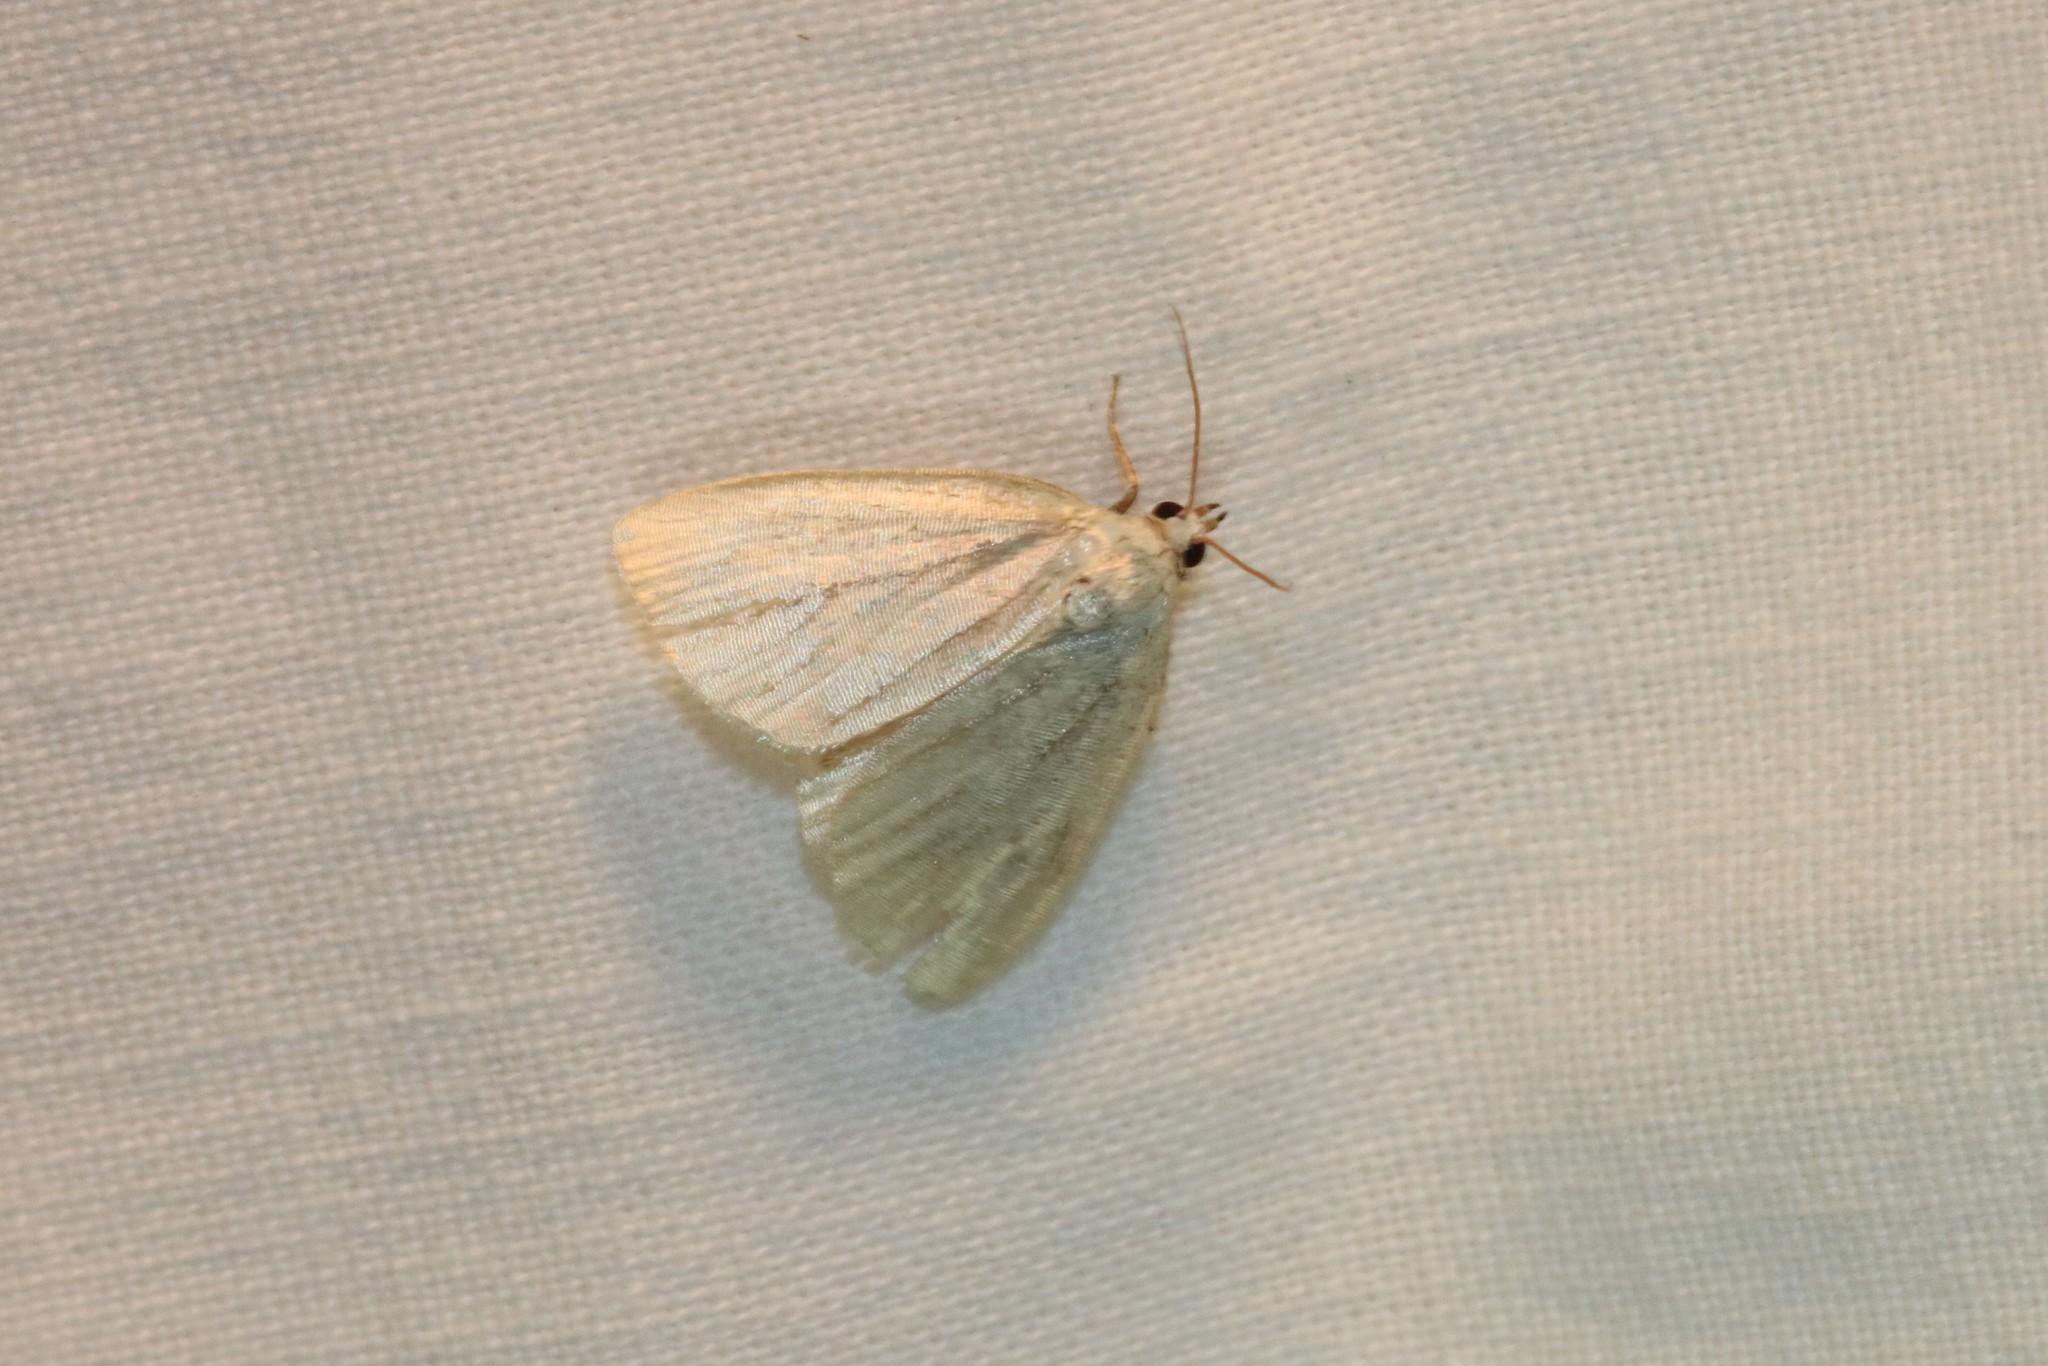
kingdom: Animalia
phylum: Arthropoda
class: Insecta
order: Lepidoptera
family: Noctuidae
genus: Protodeltote
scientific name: Protodeltote albidula
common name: Pale glyph
